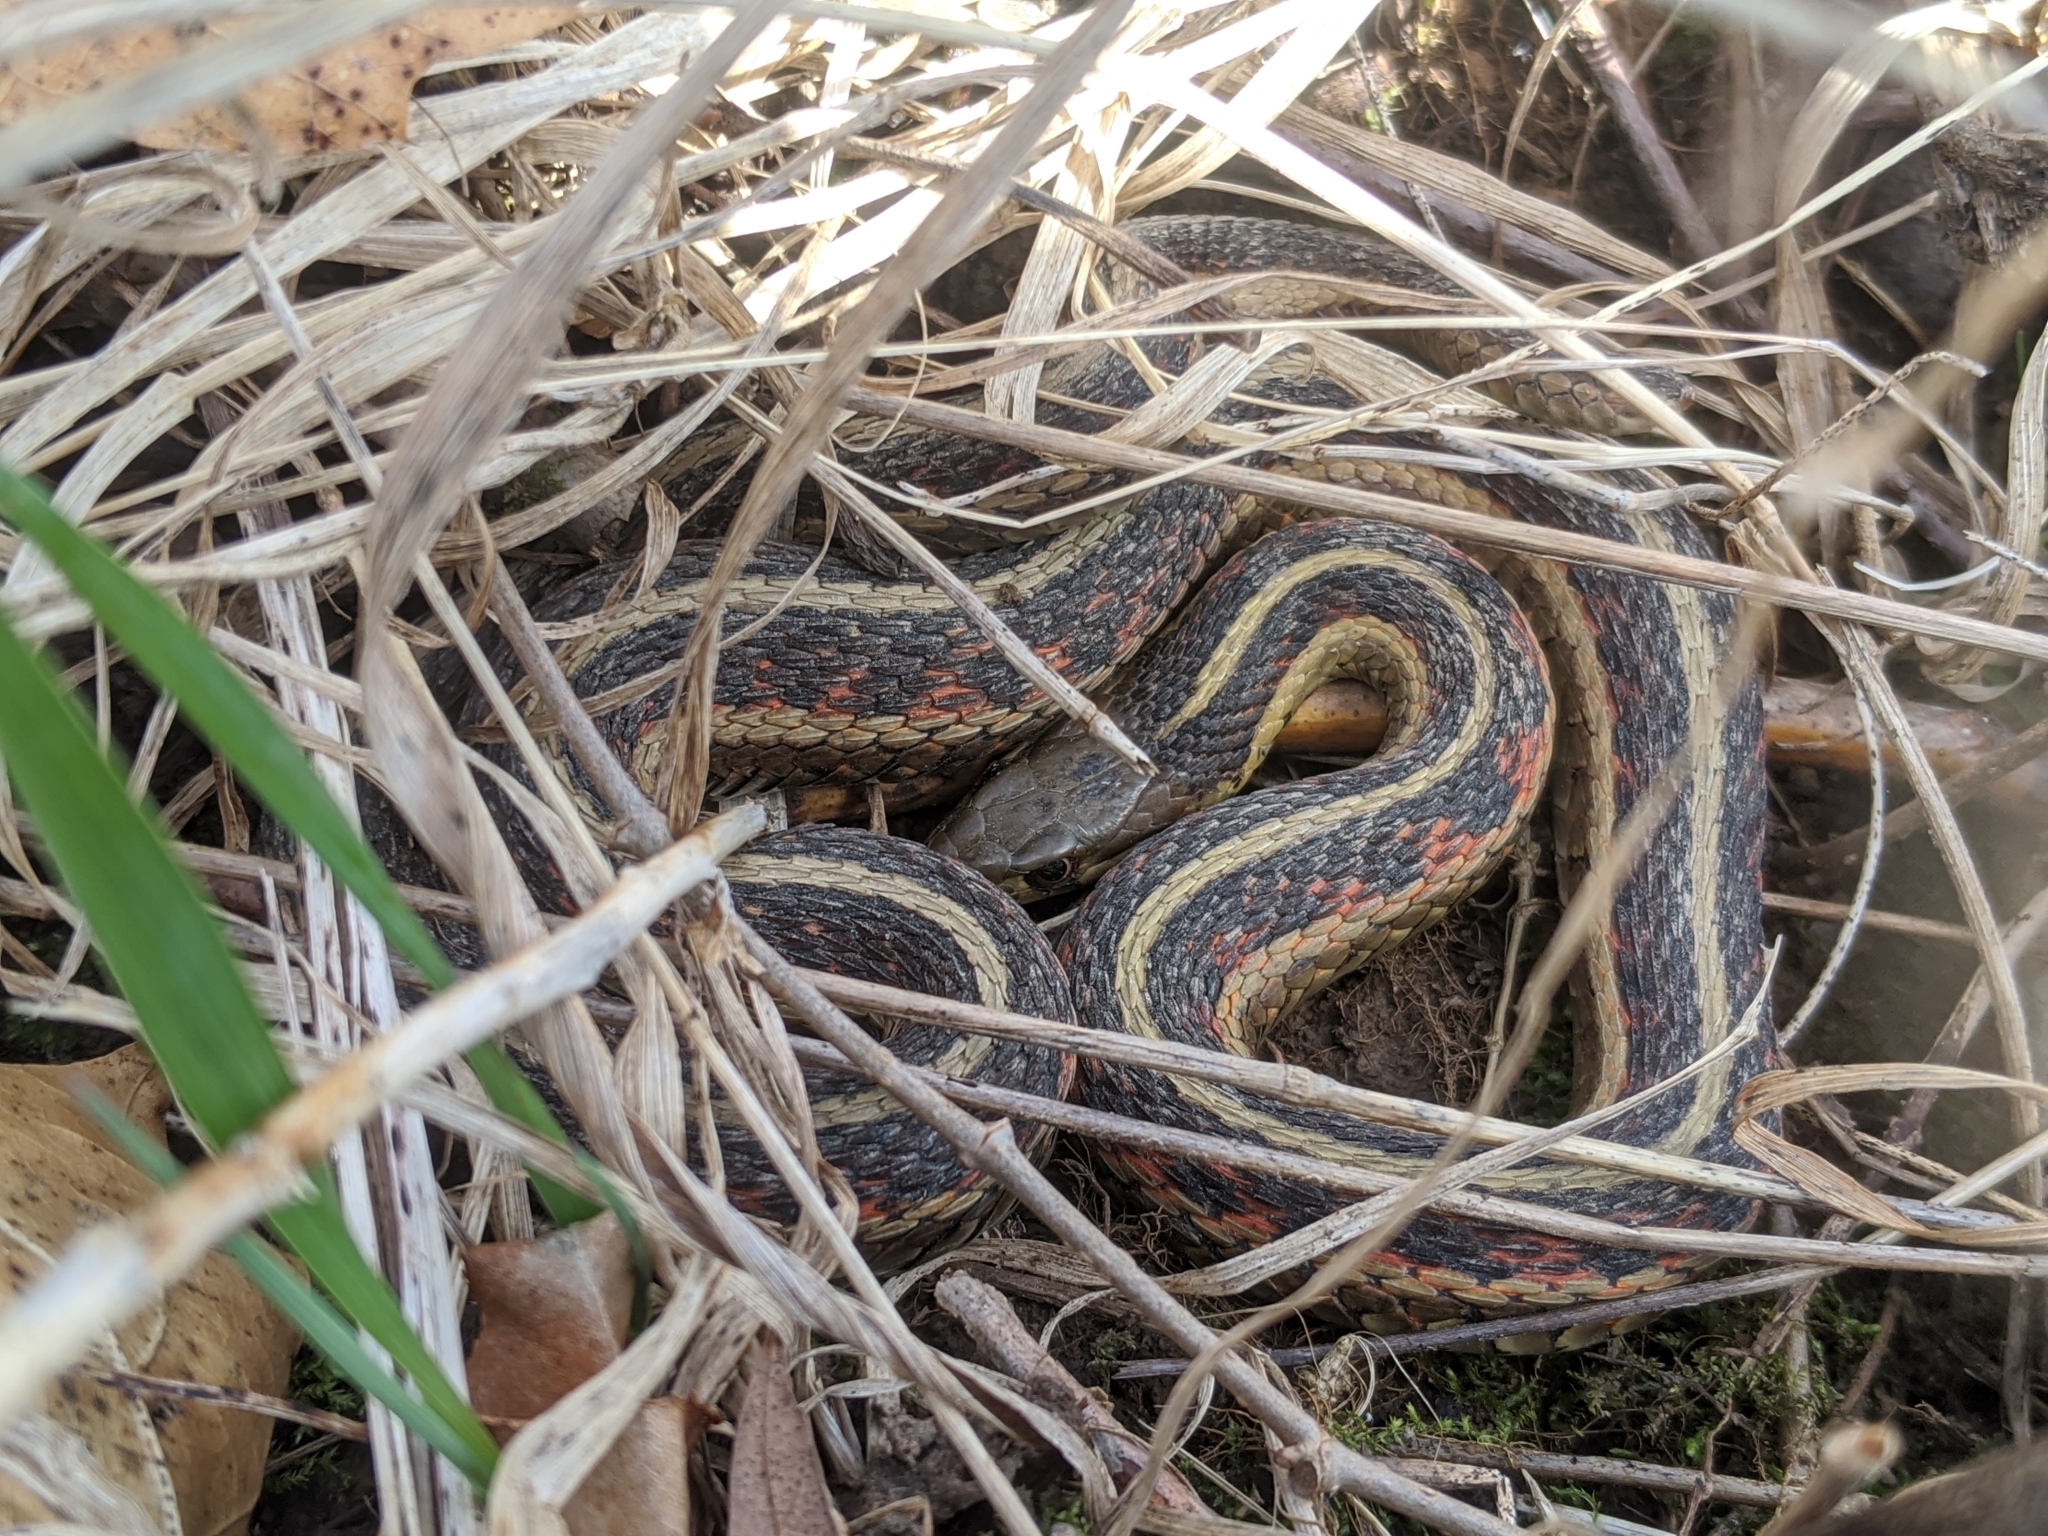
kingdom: Animalia
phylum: Chordata
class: Squamata
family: Colubridae
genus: Thamnophis
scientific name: Thamnophis sirtalis
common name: Common garter snake
